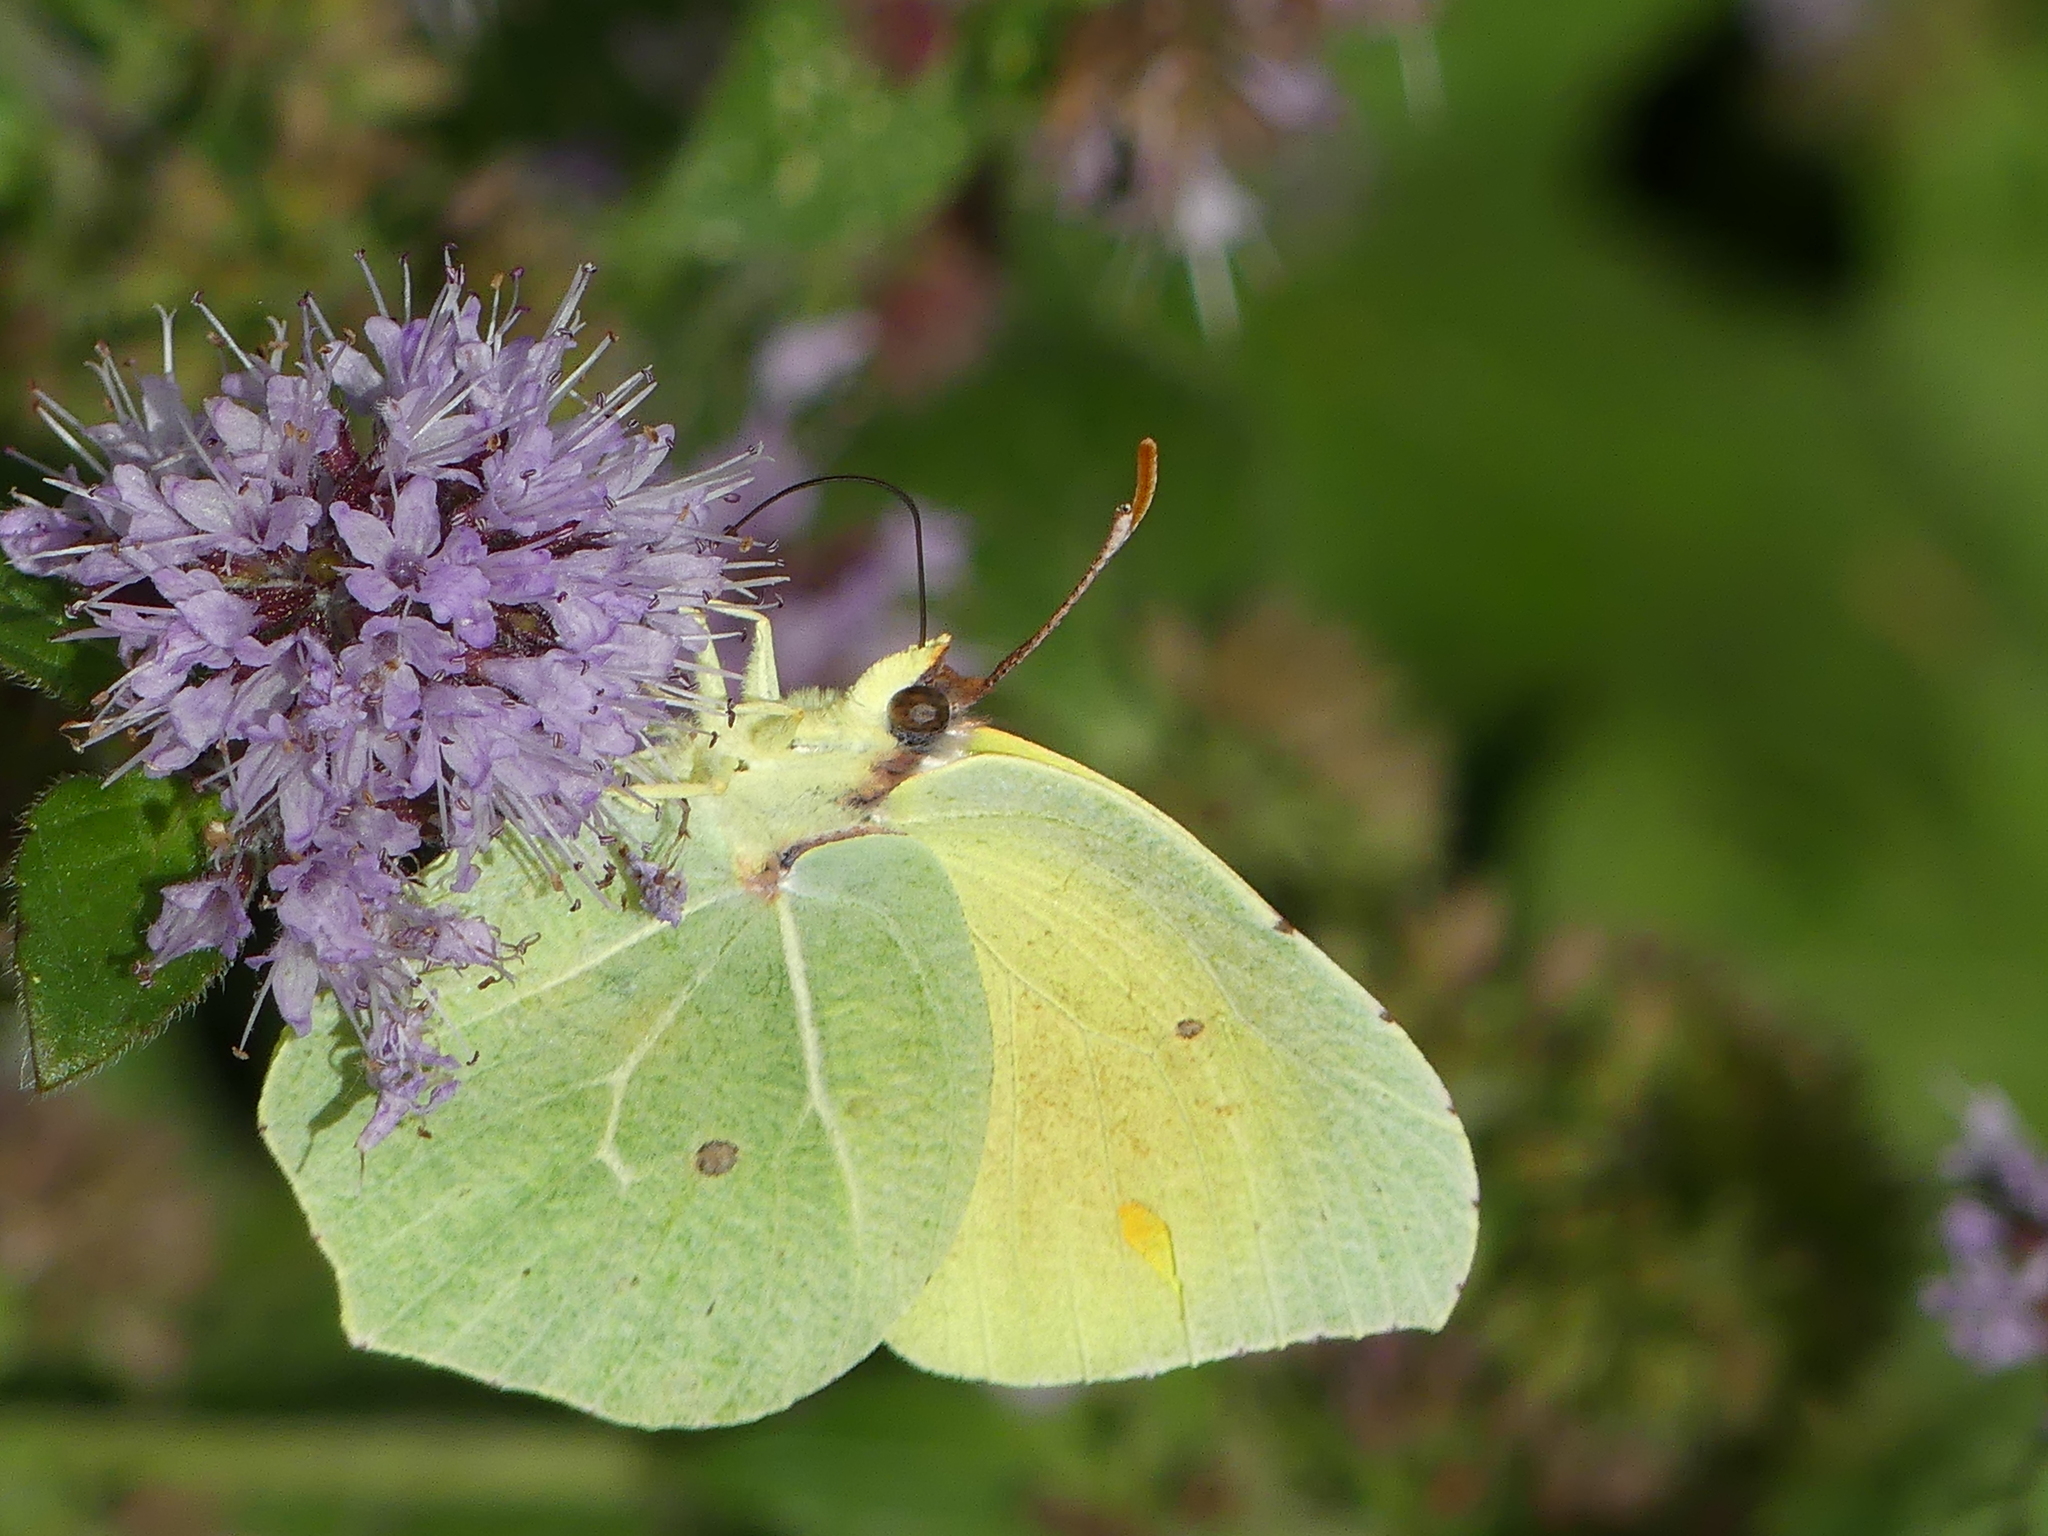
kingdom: Animalia
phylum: Arthropoda
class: Insecta
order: Lepidoptera
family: Pieridae
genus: Gonepteryx
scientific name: Gonepteryx rhamni
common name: Brimstone
